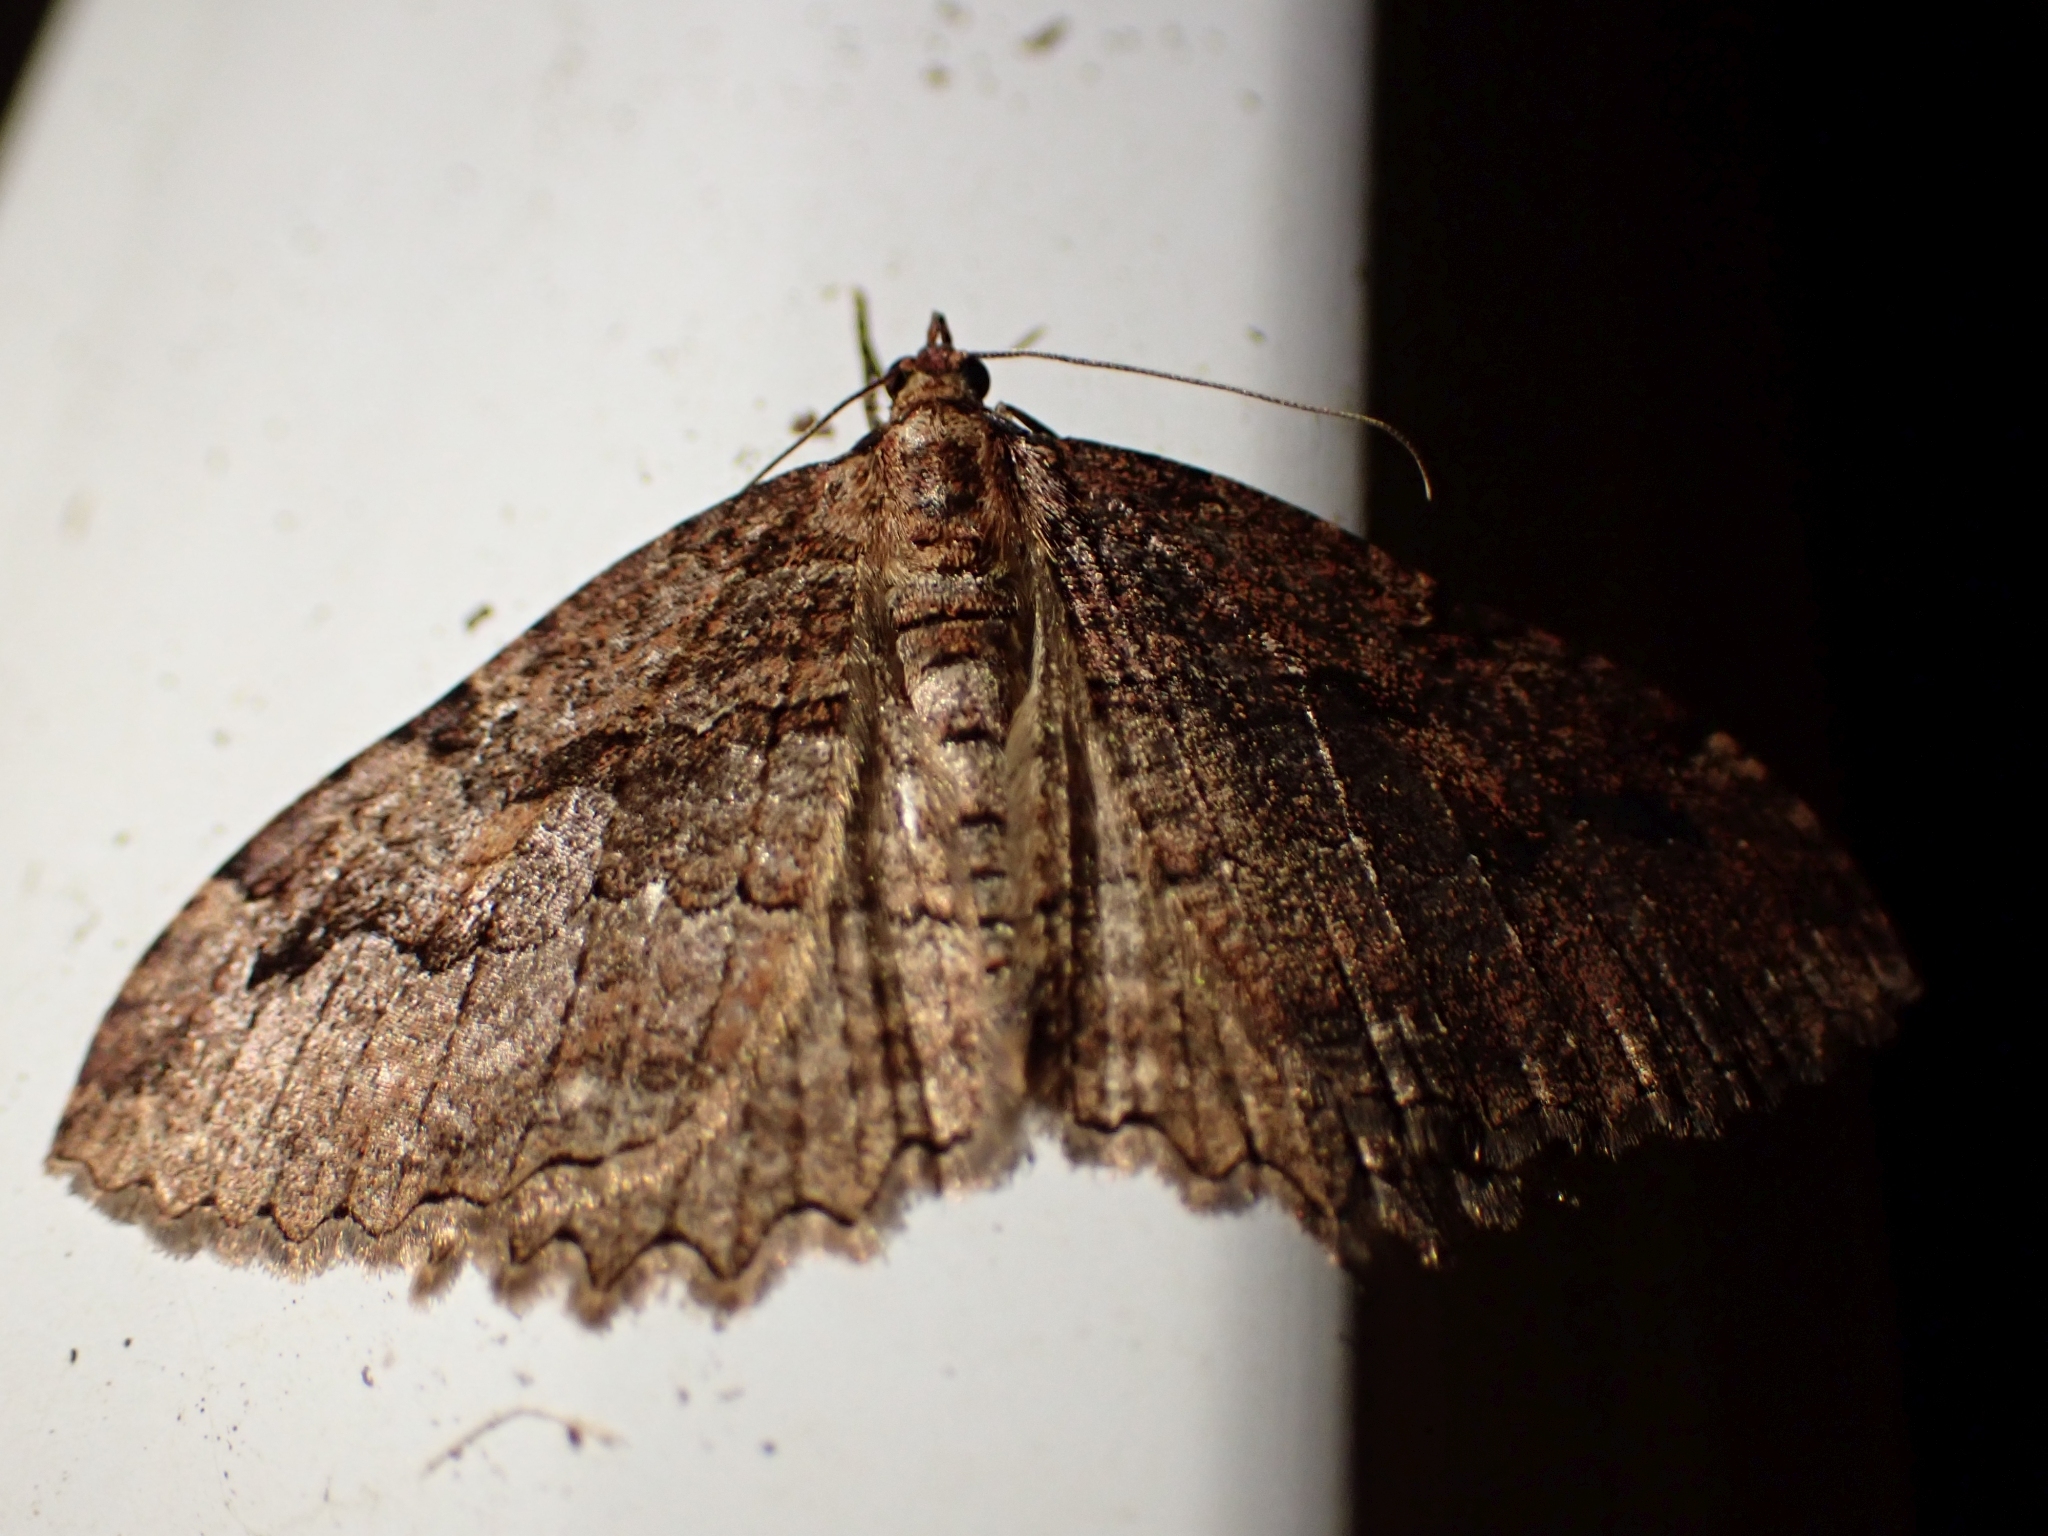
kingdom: Animalia
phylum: Arthropoda
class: Insecta
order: Lepidoptera
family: Geometridae
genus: Triphosa
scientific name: Triphosa haesitata
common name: Tissue moth
